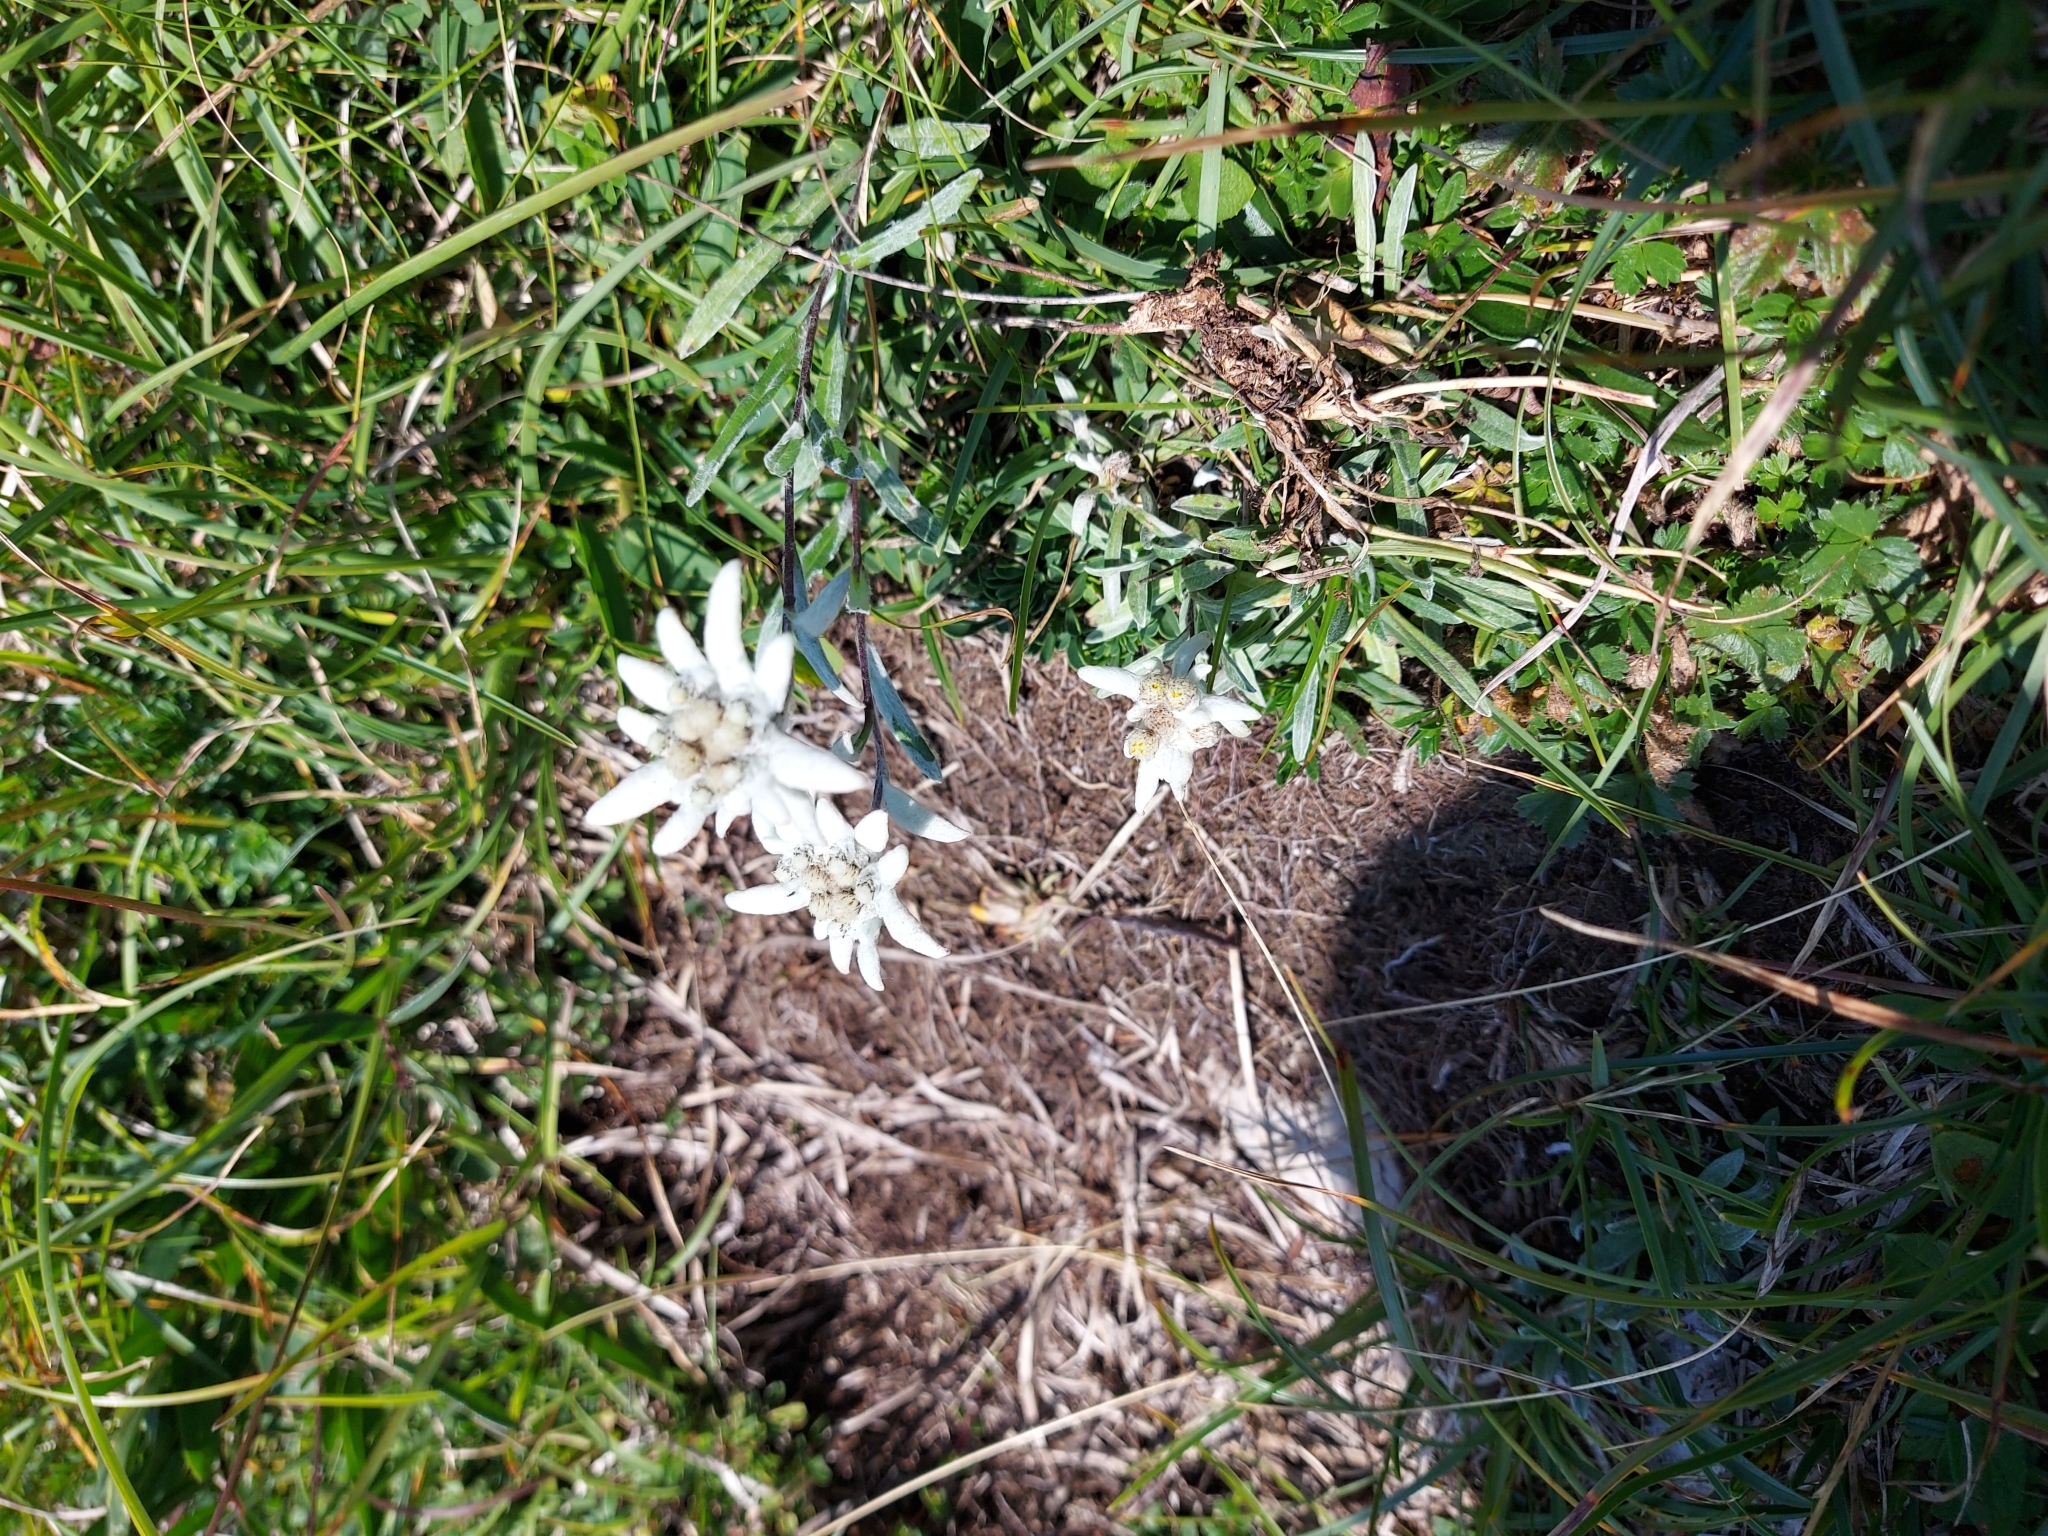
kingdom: Plantae
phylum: Tracheophyta
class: Magnoliopsida
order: Asterales
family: Asteraceae
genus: Leontopodium
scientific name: Leontopodium nivale
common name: Edelweiss
